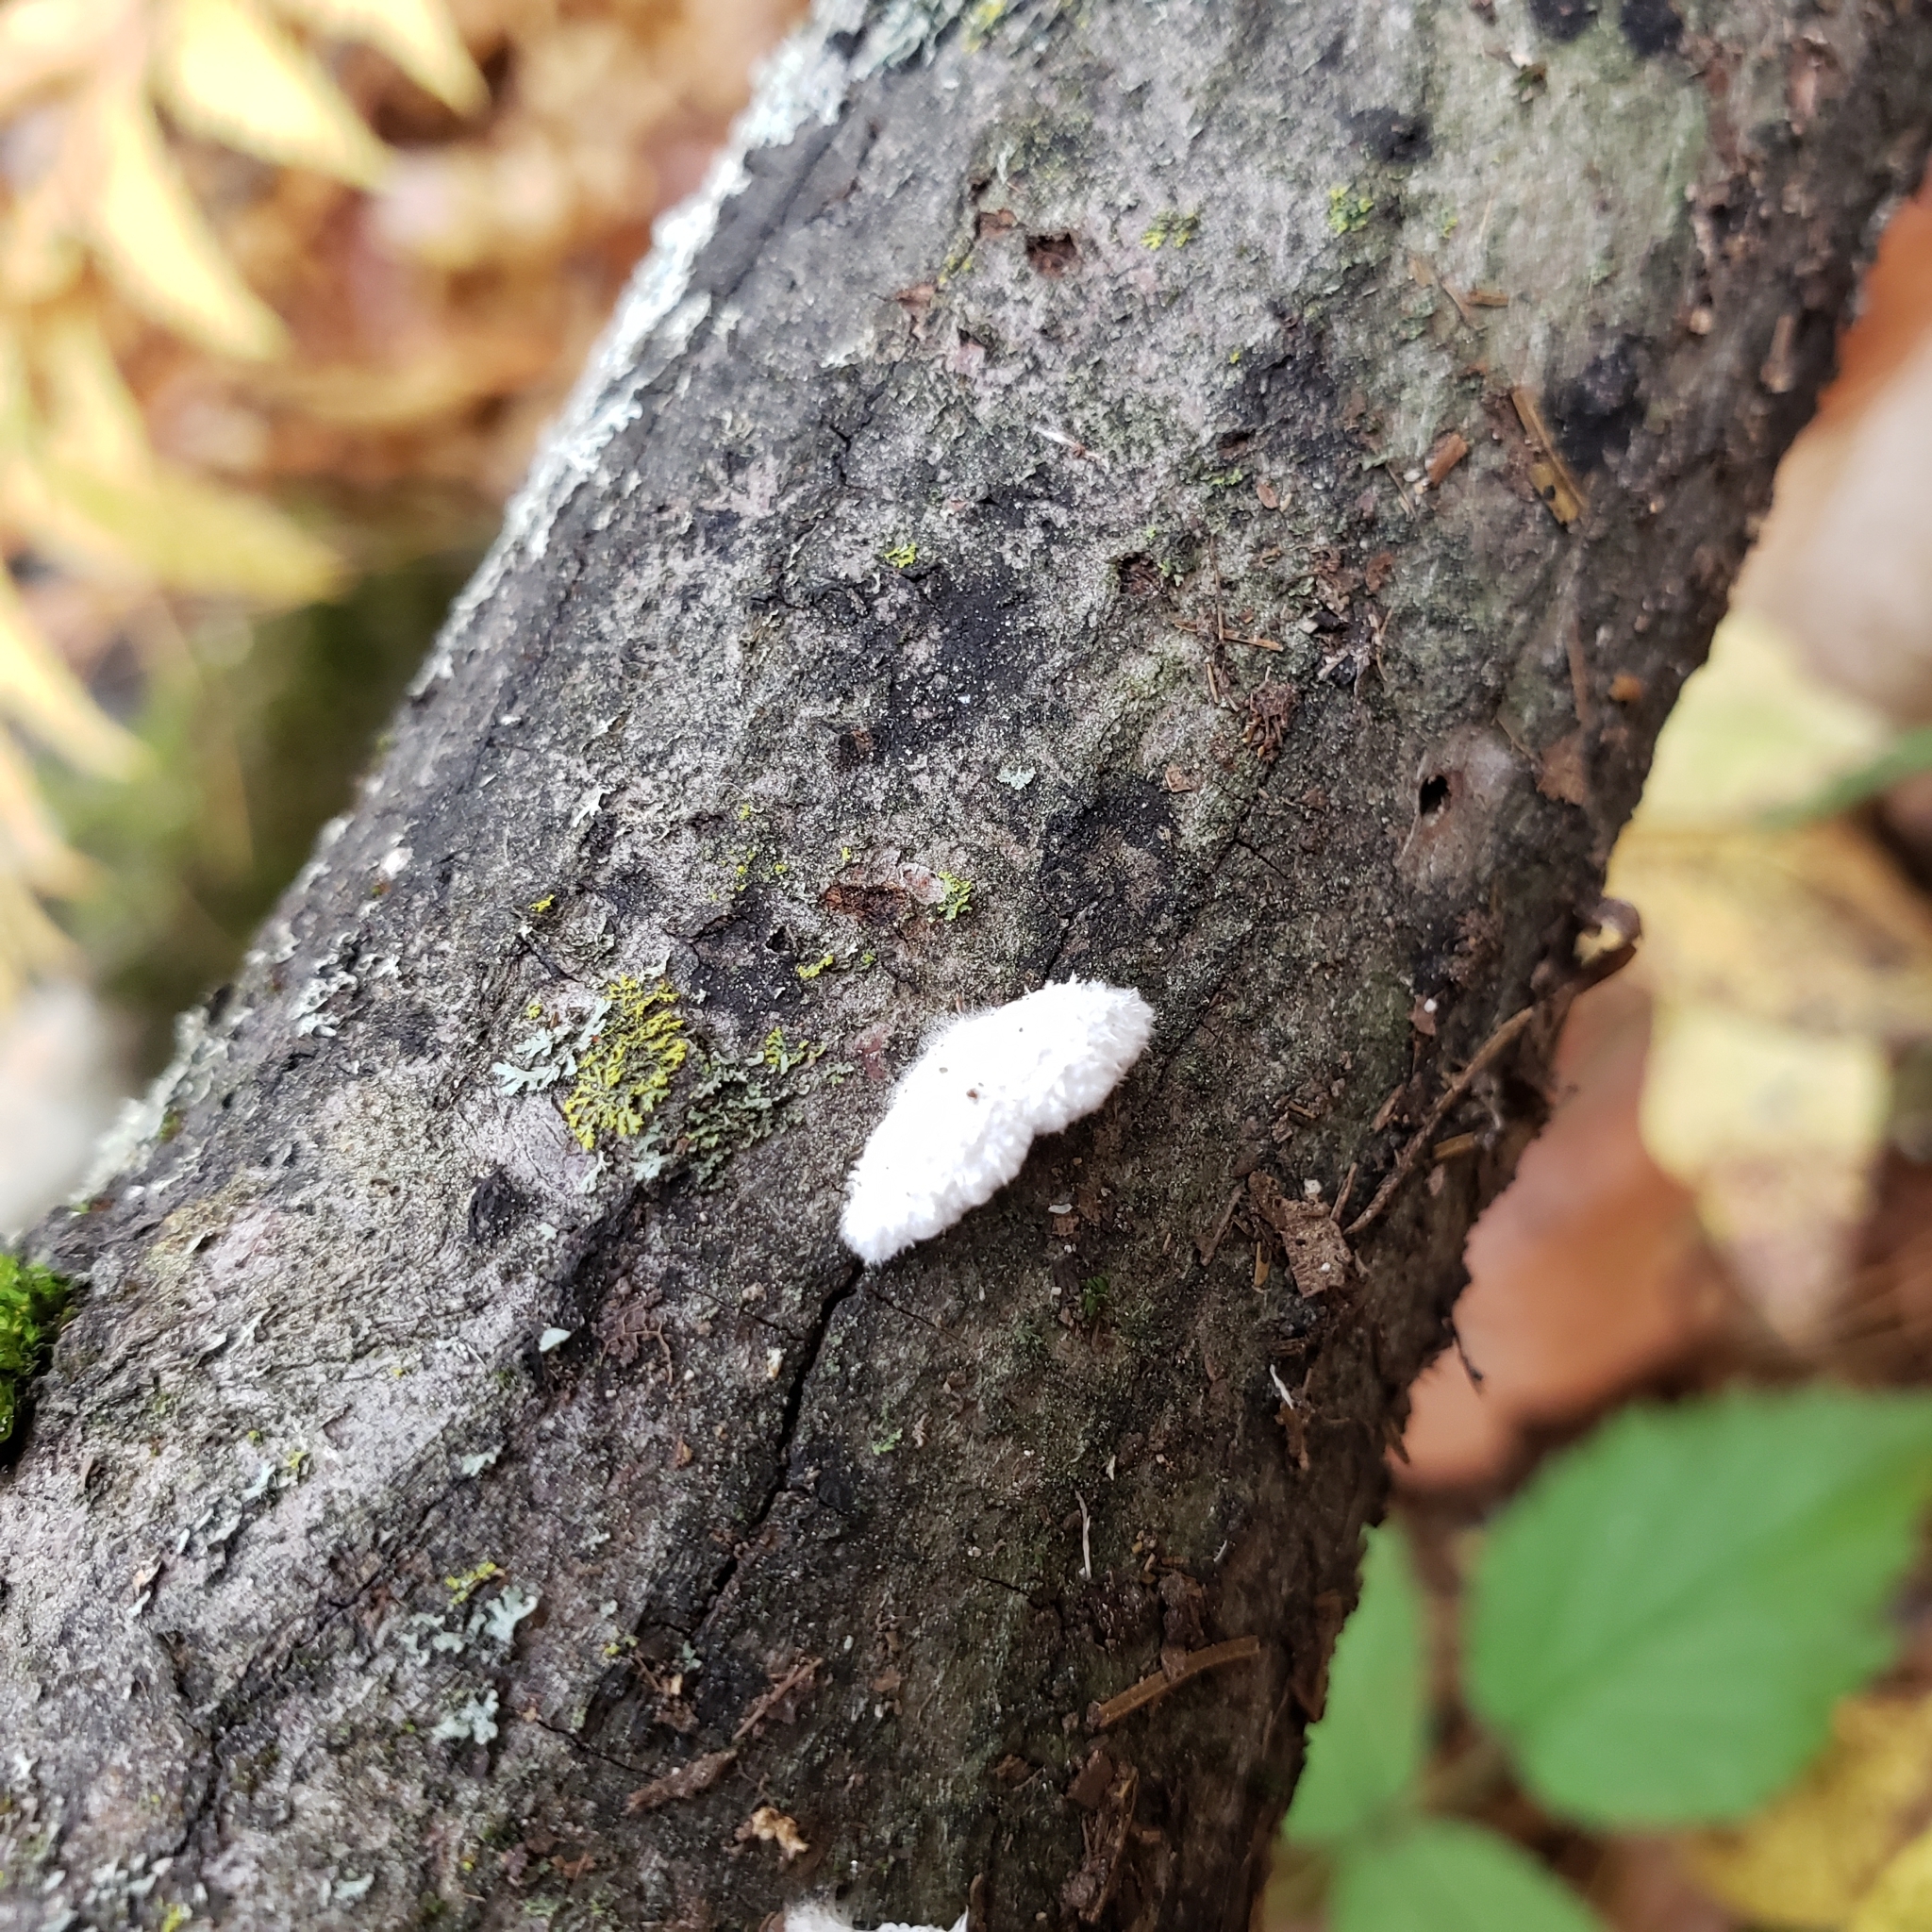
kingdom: Fungi
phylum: Basidiomycota
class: Agaricomycetes
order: Agaricales
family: Schizophyllaceae
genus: Schizophyllum
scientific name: Schizophyllum commune
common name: Common porecrust
